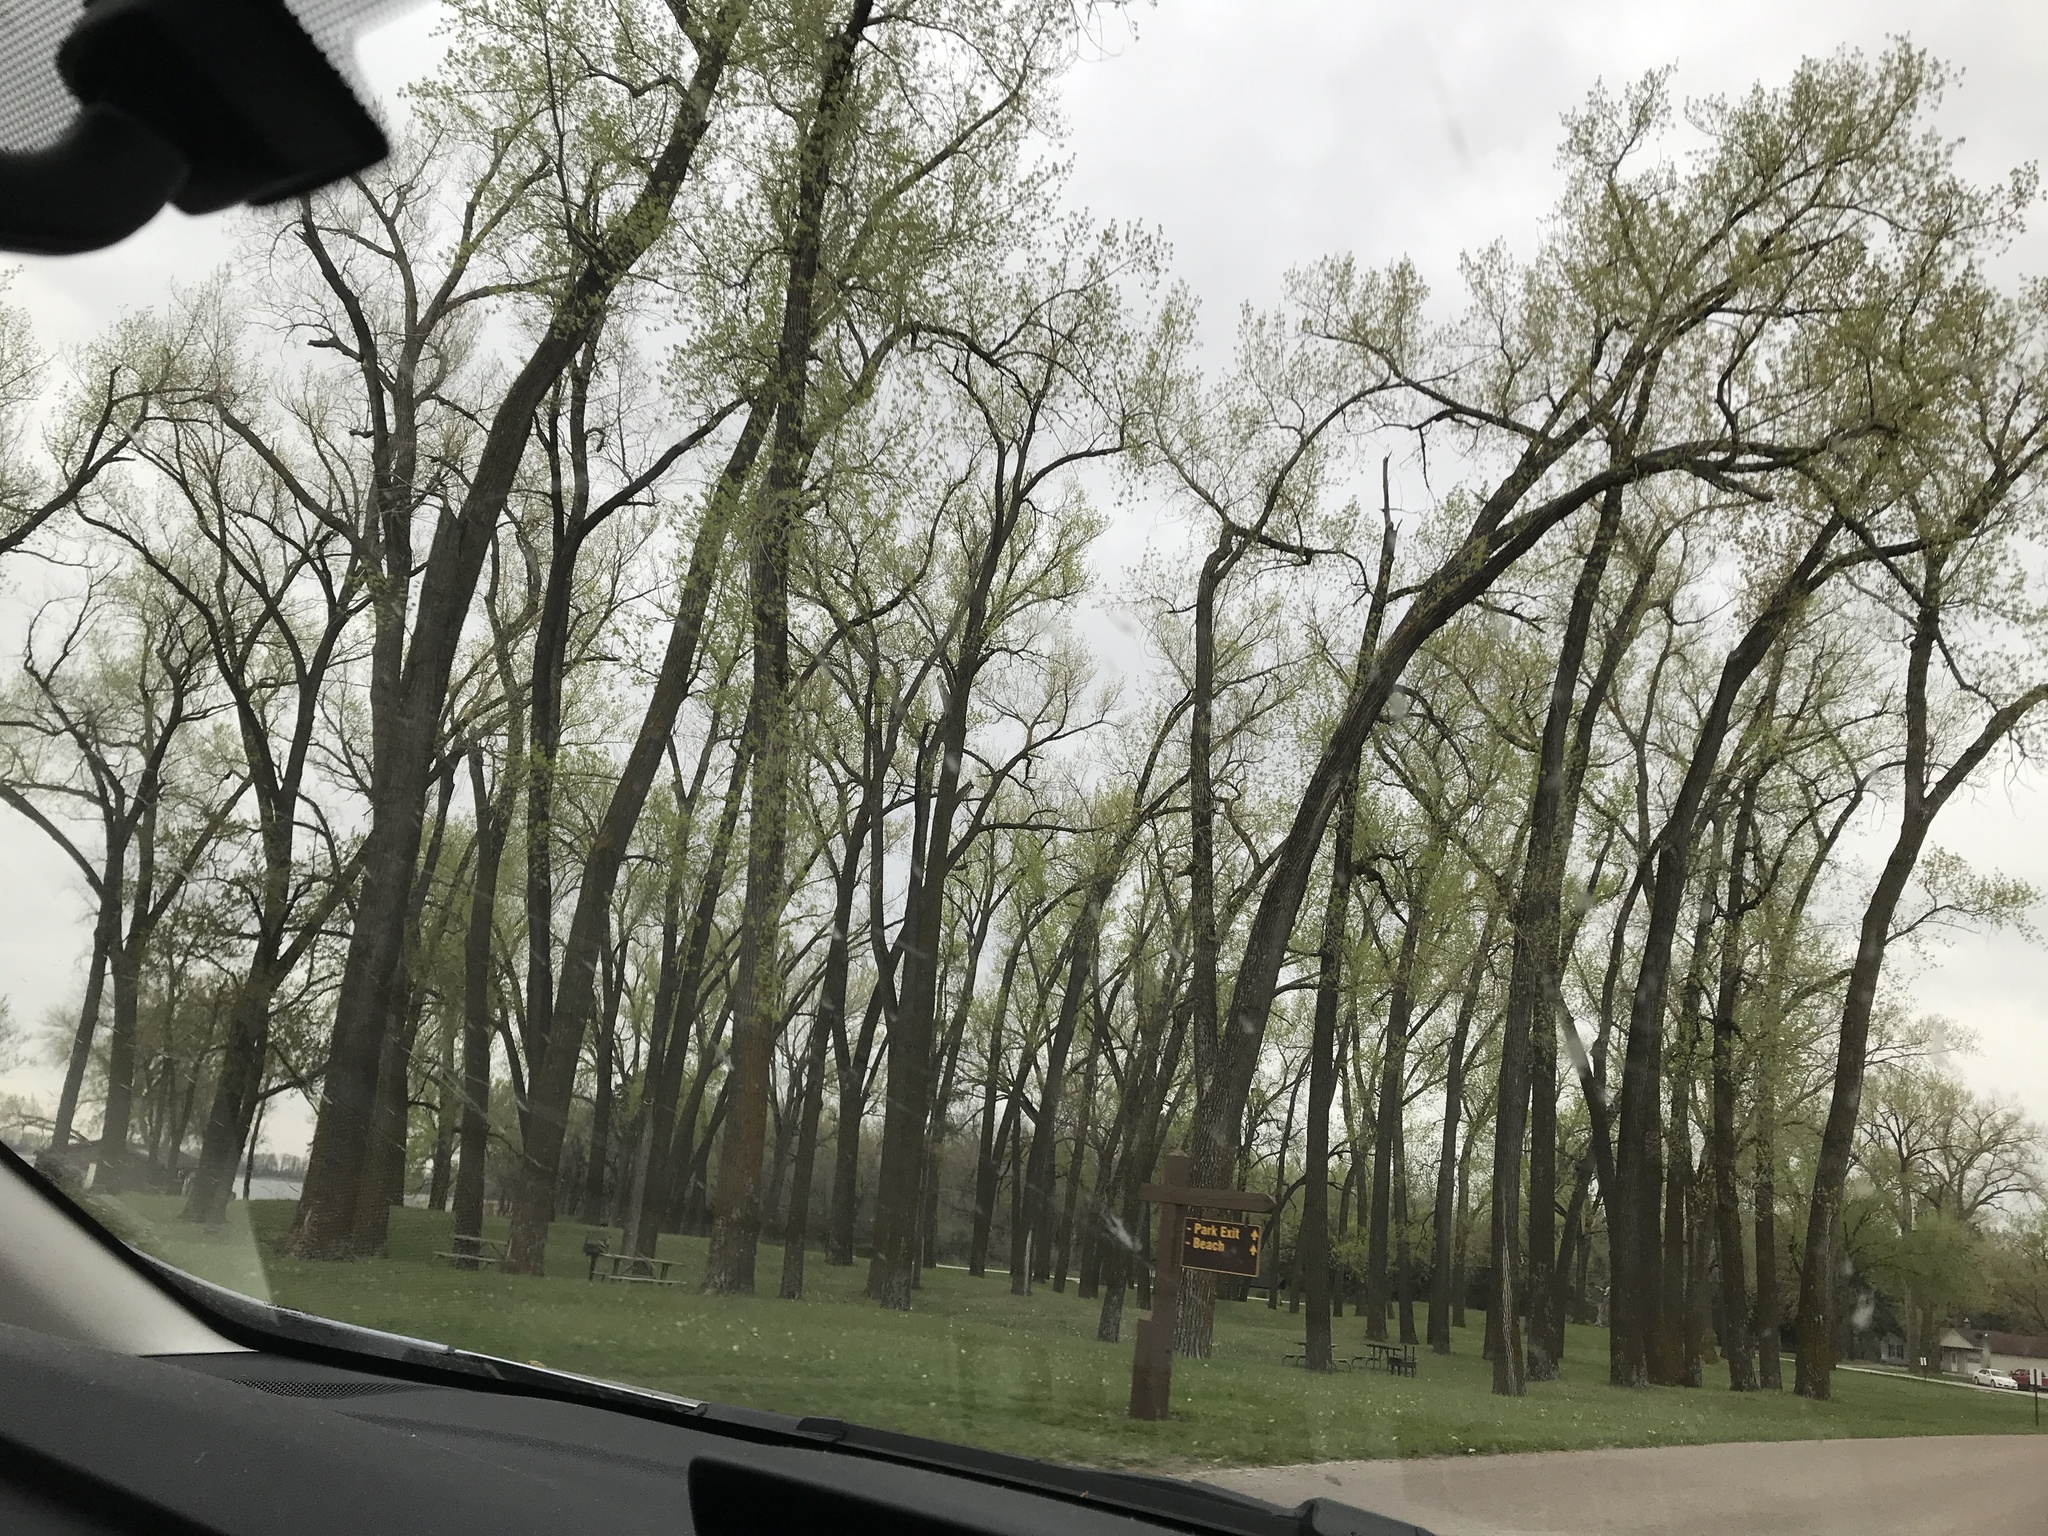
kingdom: Plantae
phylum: Tracheophyta
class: Magnoliopsida
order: Malpighiales
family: Salicaceae
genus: Populus
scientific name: Populus deltoides
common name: Eastern cottonwood
